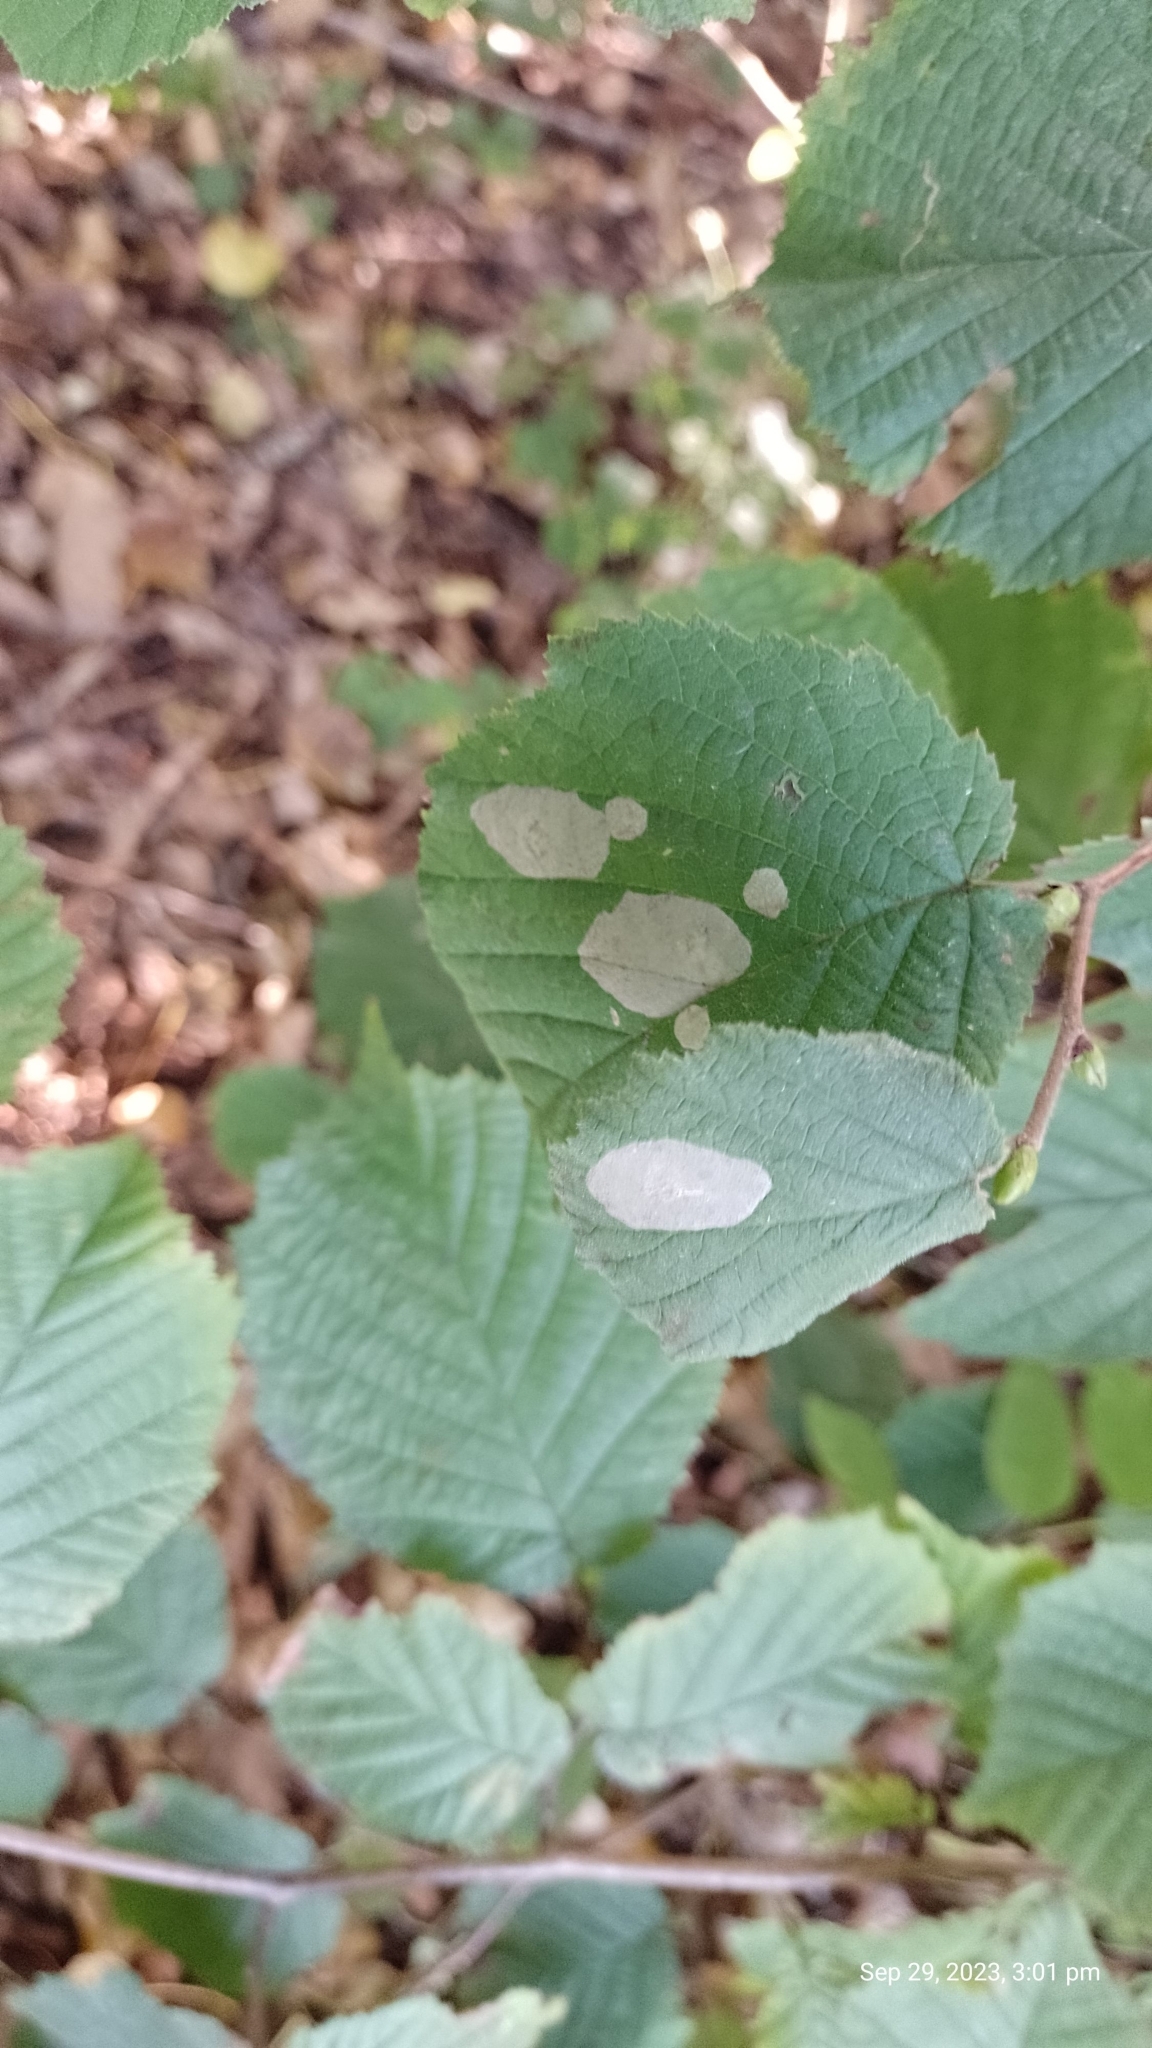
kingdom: Animalia
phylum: Arthropoda
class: Insecta
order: Lepidoptera
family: Gracillariidae
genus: Phyllonorycter
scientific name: Phyllonorycter coryli
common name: Nut-leaf blister moth
